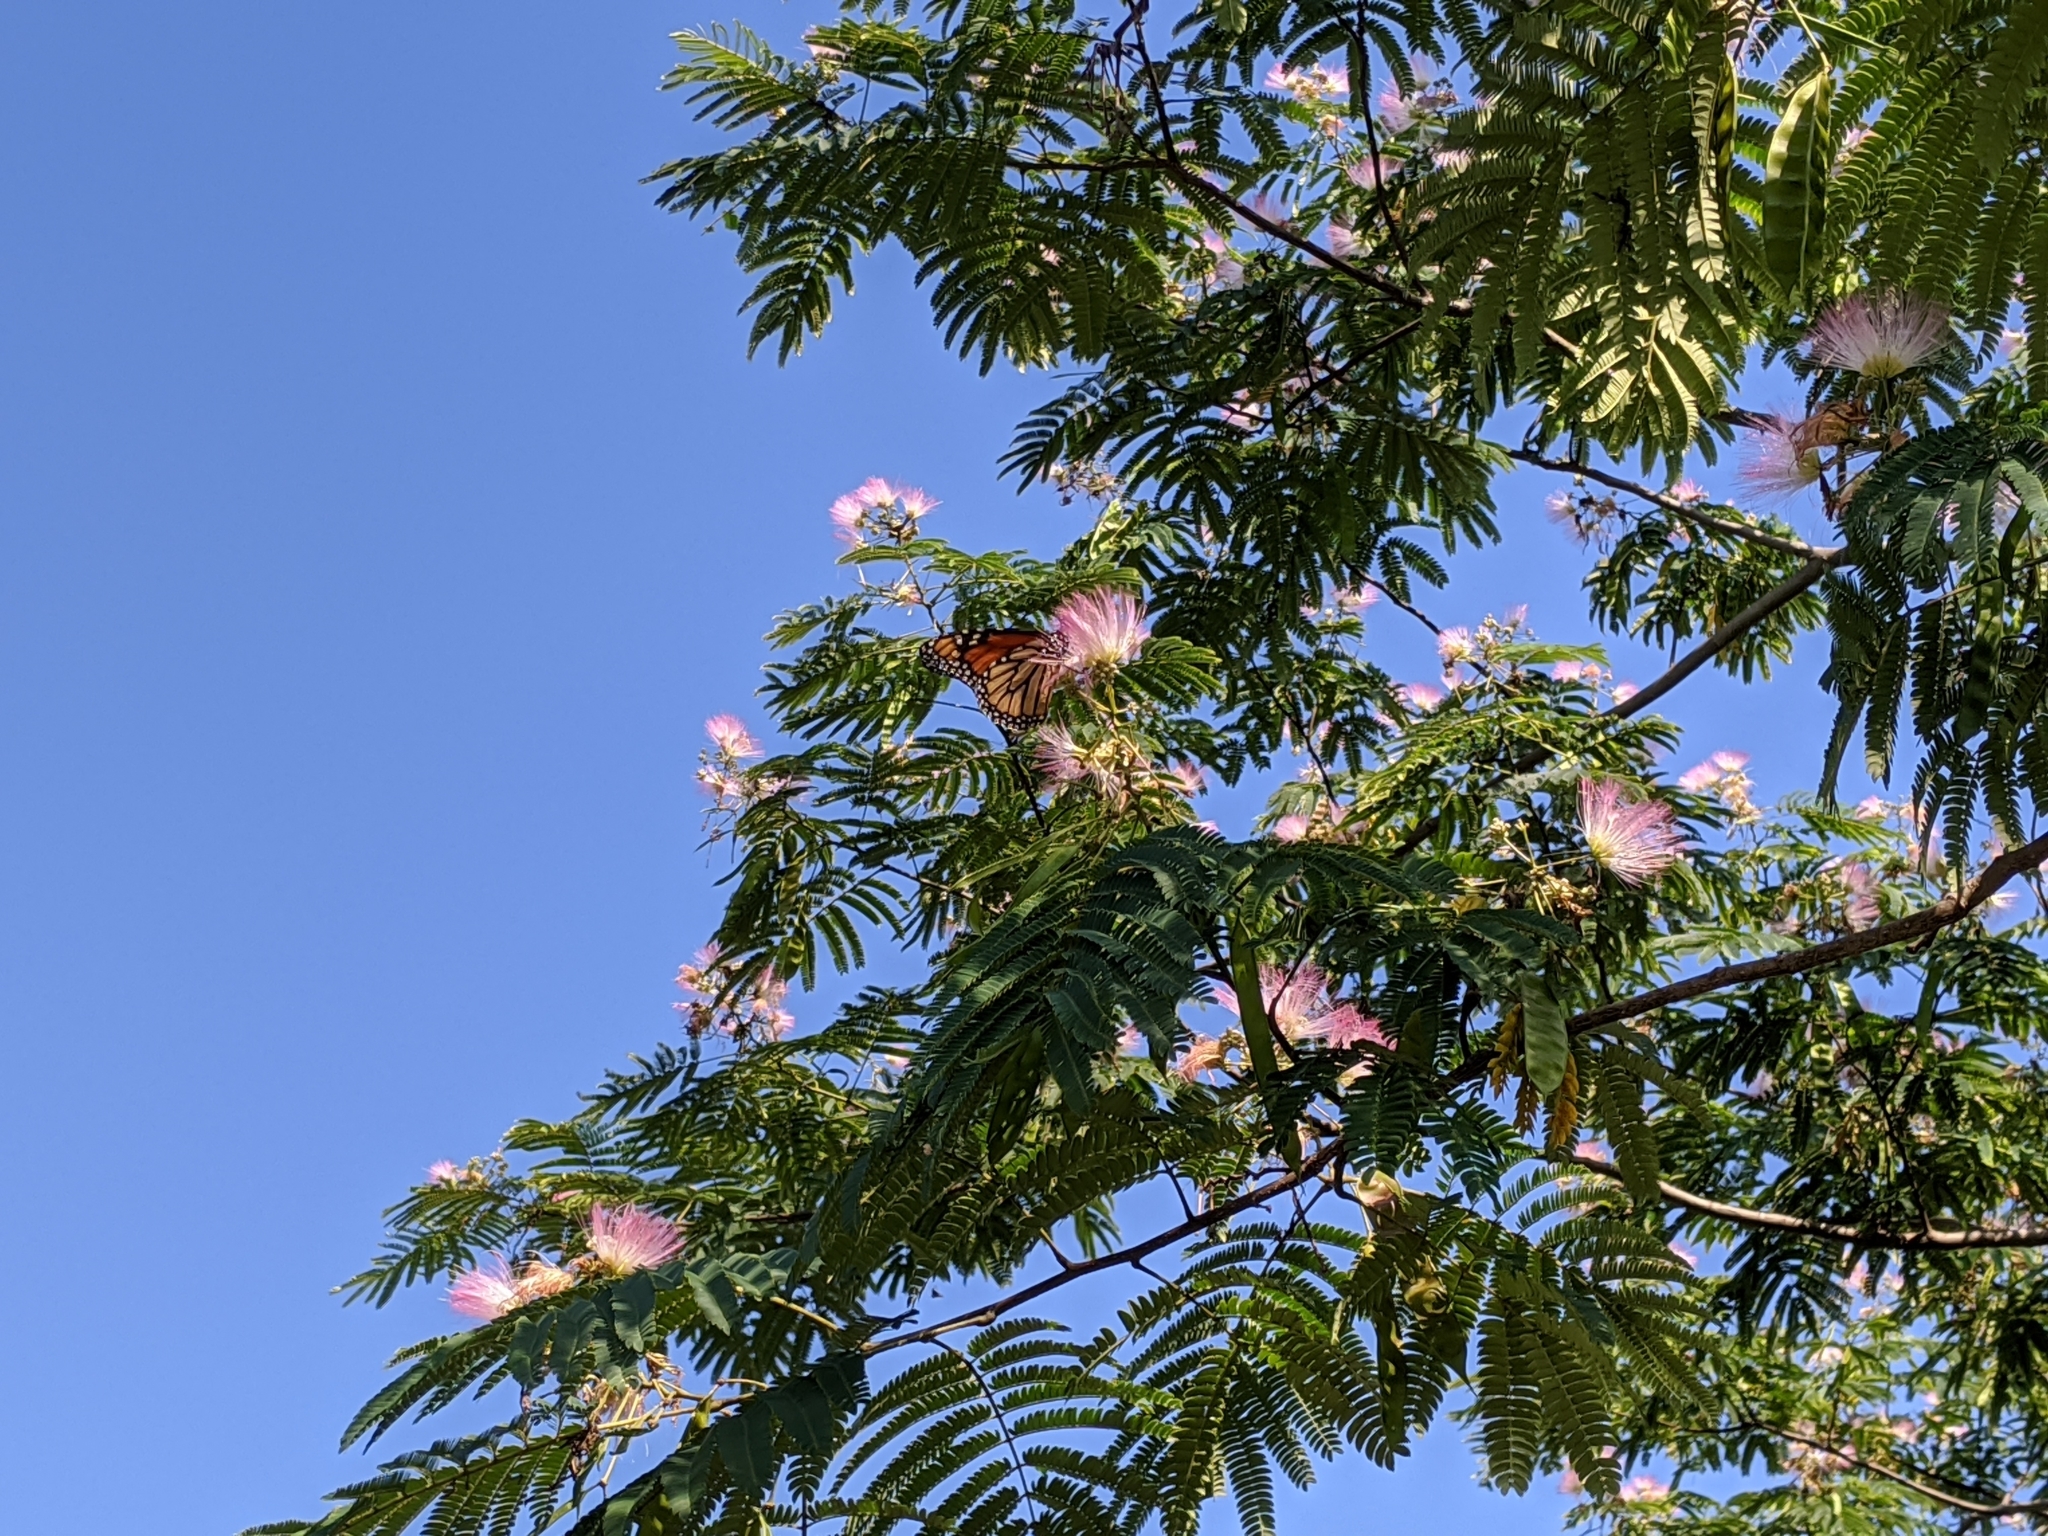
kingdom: Animalia
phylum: Arthropoda
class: Insecta
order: Lepidoptera
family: Nymphalidae
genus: Danaus
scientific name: Danaus plexippus
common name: Monarch
